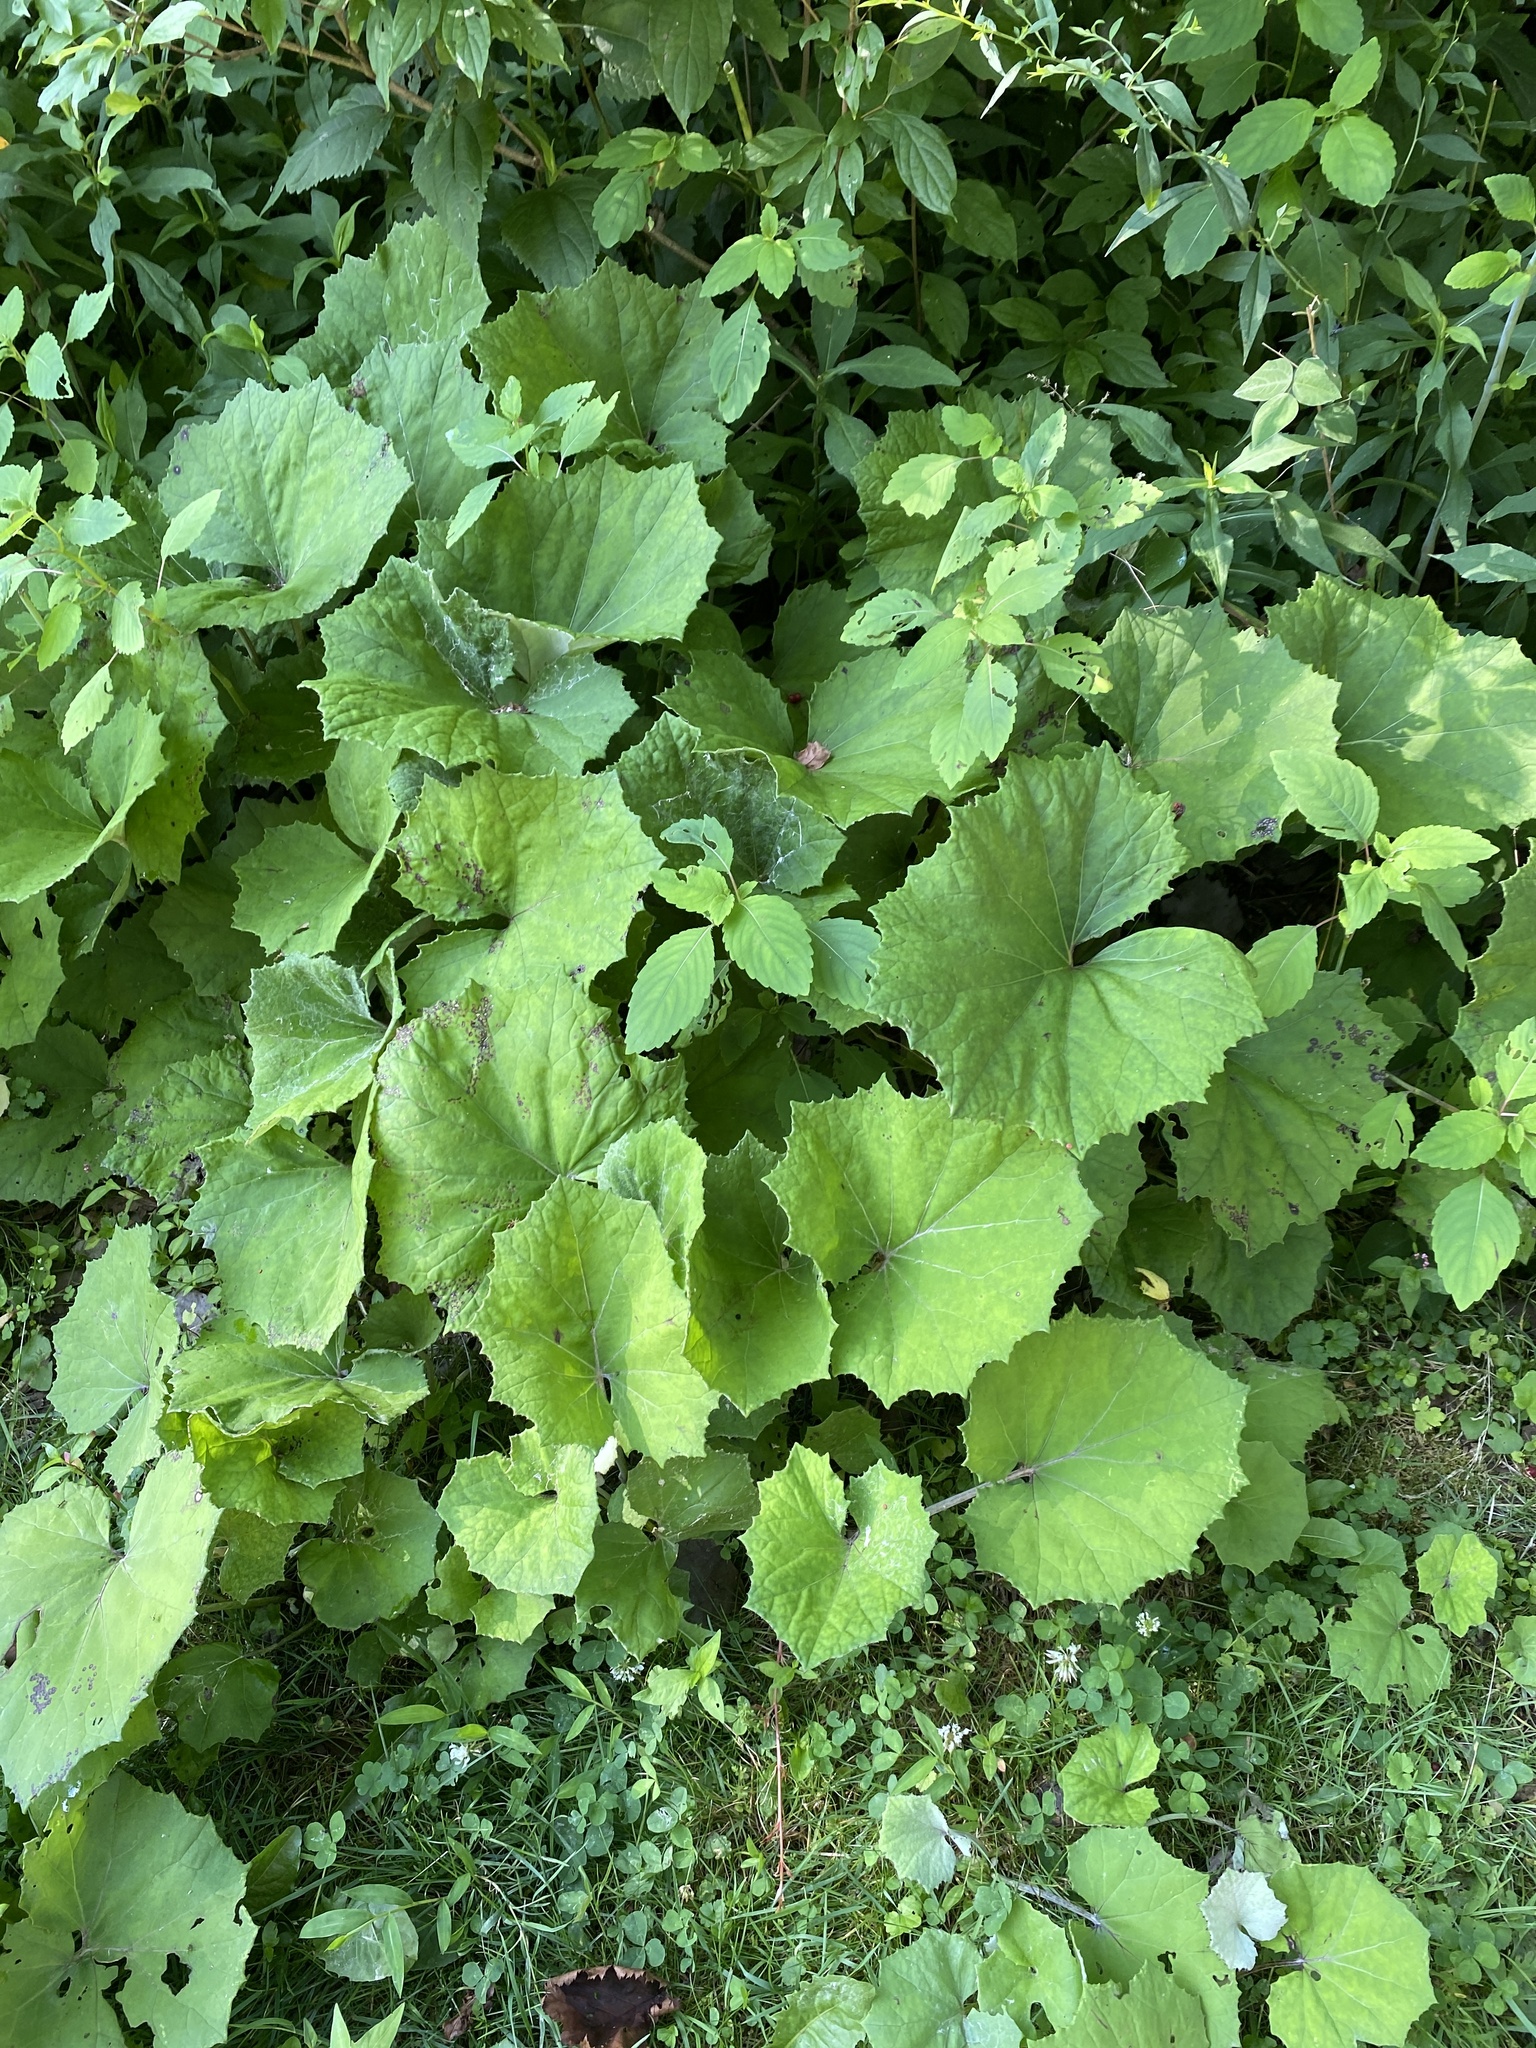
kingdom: Plantae
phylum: Tracheophyta
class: Magnoliopsida
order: Asterales
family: Asteraceae
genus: Tussilago
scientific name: Tussilago farfara
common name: Coltsfoot
